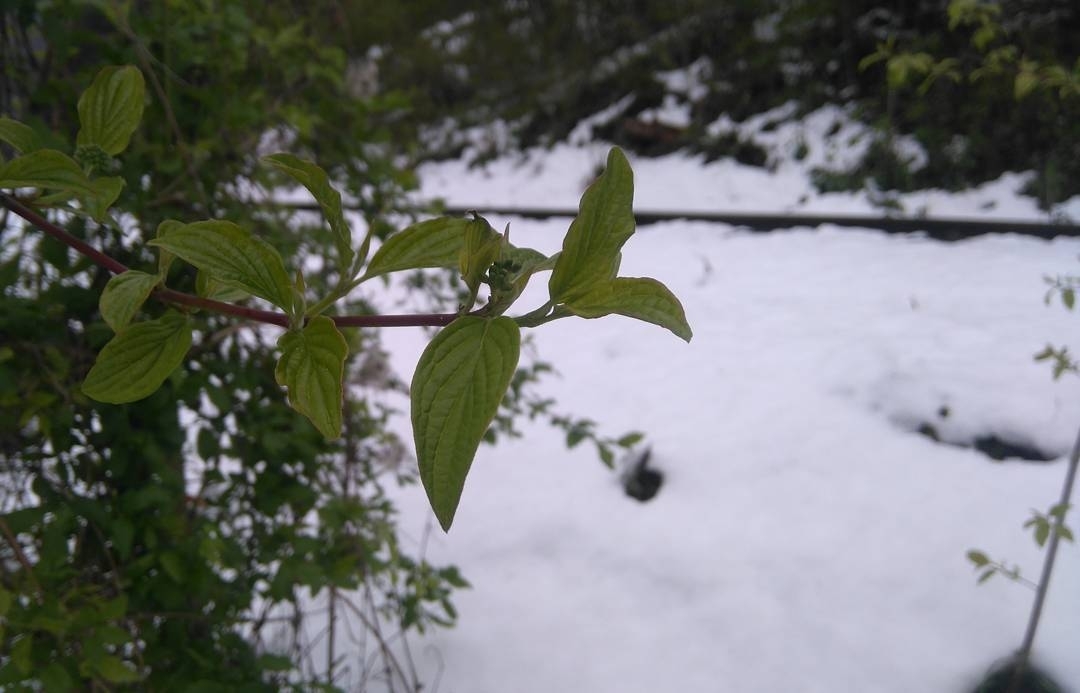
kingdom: Plantae
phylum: Tracheophyta
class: Magnoliopsida
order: Cornales
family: Cornaceae
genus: Cornus
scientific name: Cornus sanguinea
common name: Dogwood
